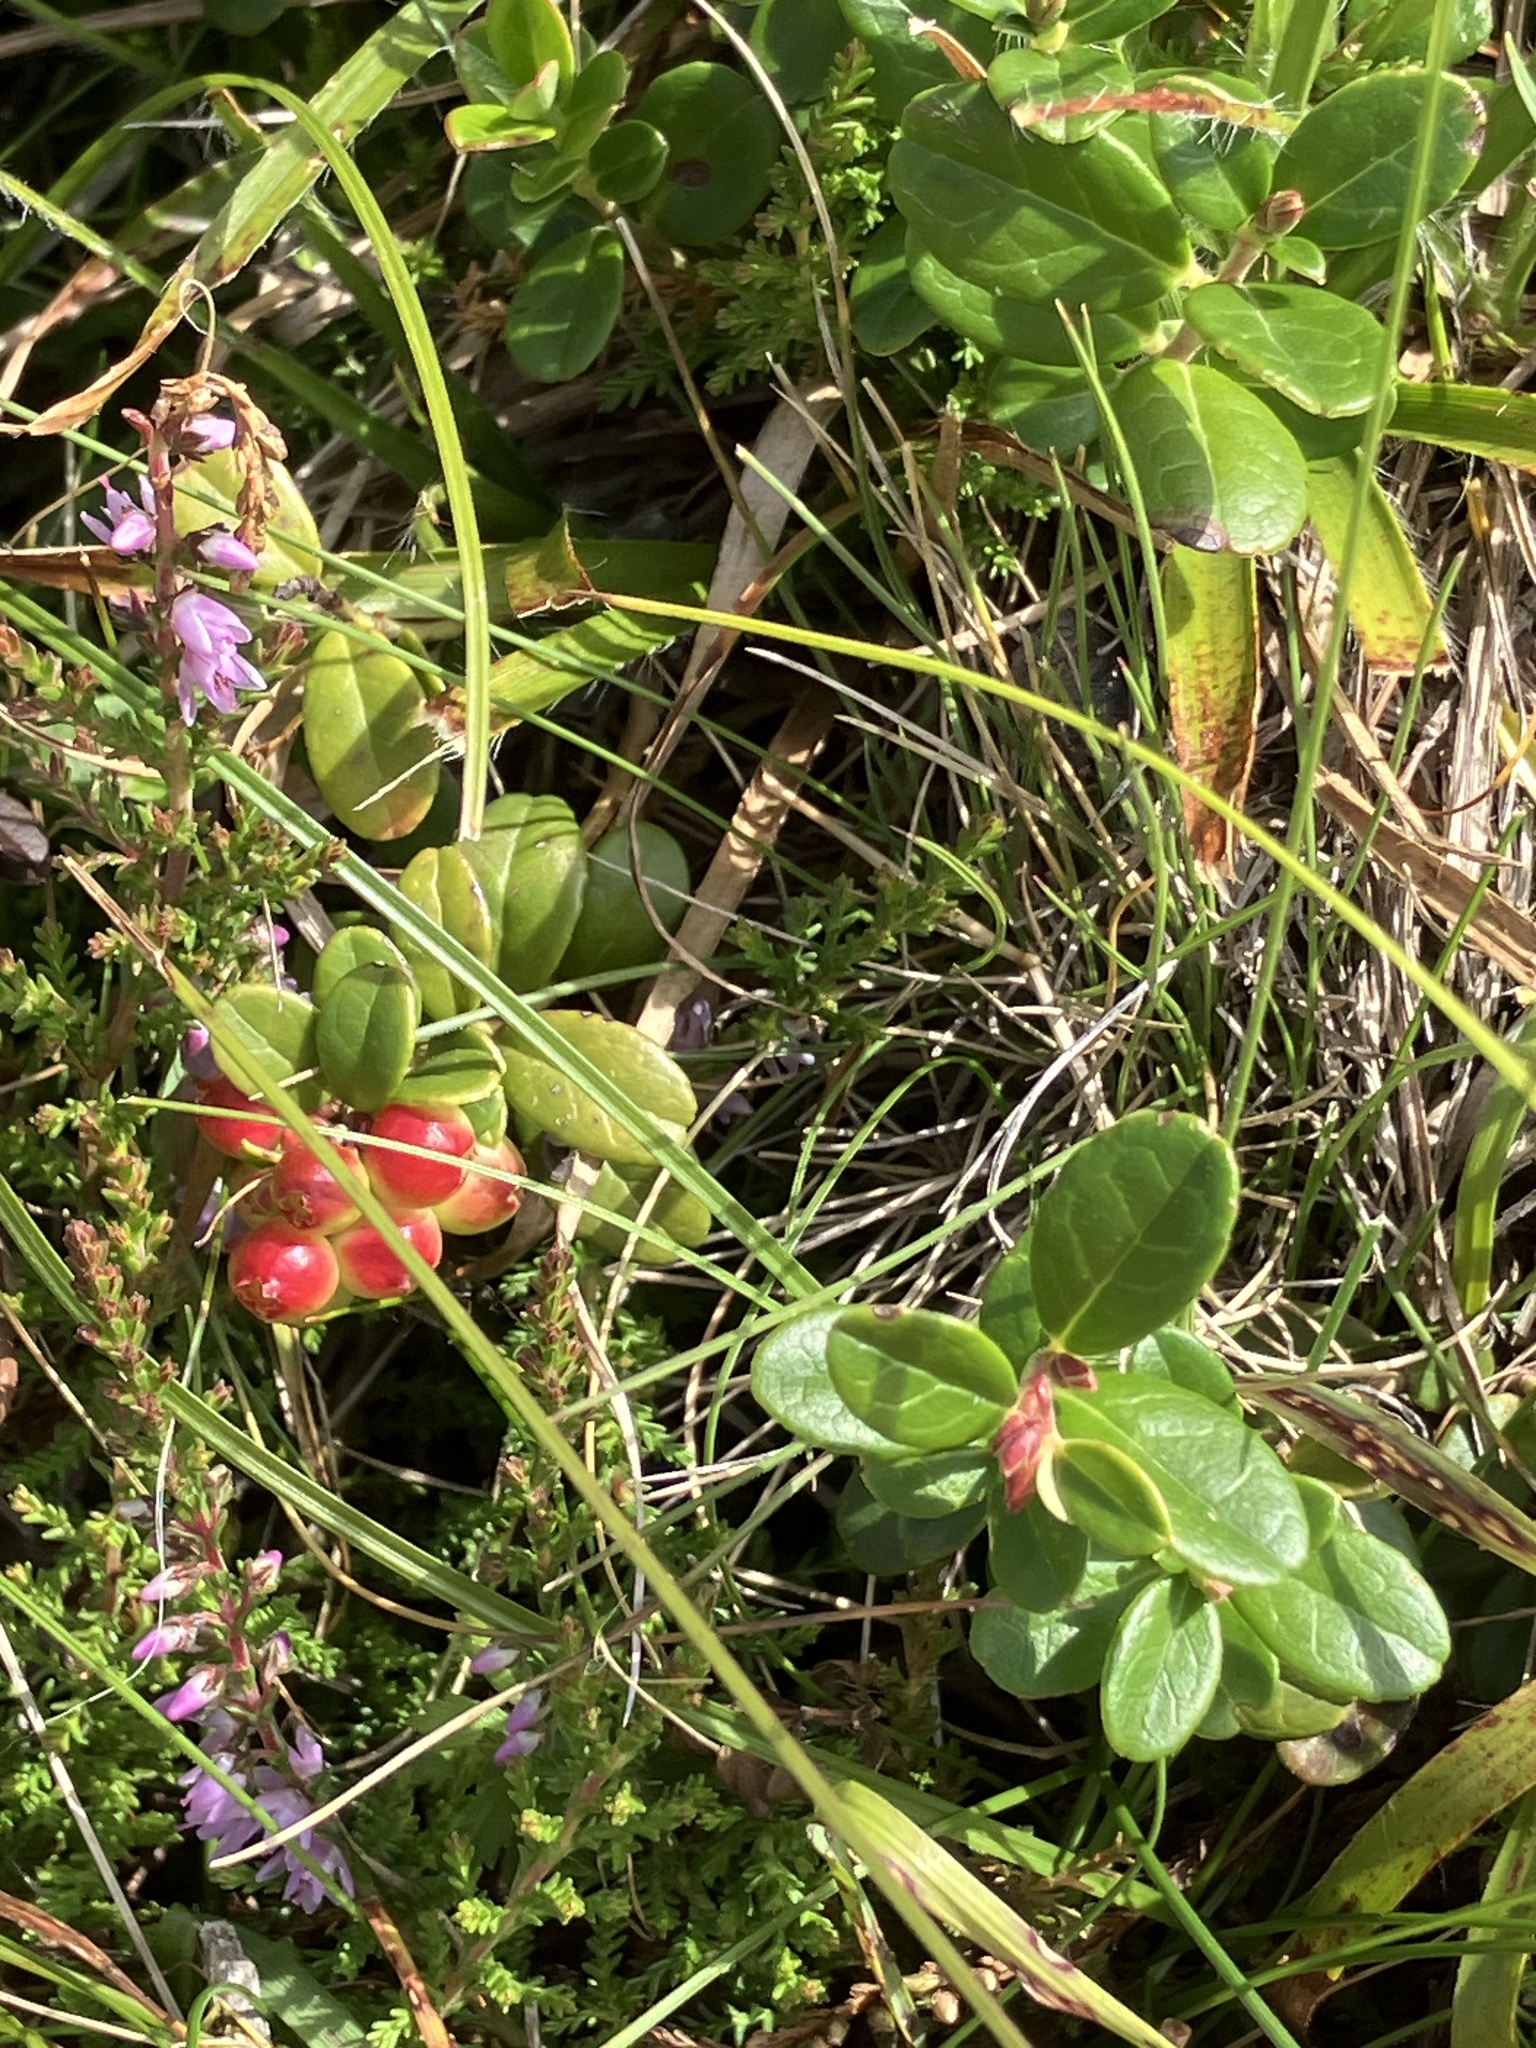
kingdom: Plantae
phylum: Tracheophyta
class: Magnoliopsida
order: Ericales
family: Ericaceae
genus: Vaccinium
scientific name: Vaccinium vitis-idaea
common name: Cowberry
